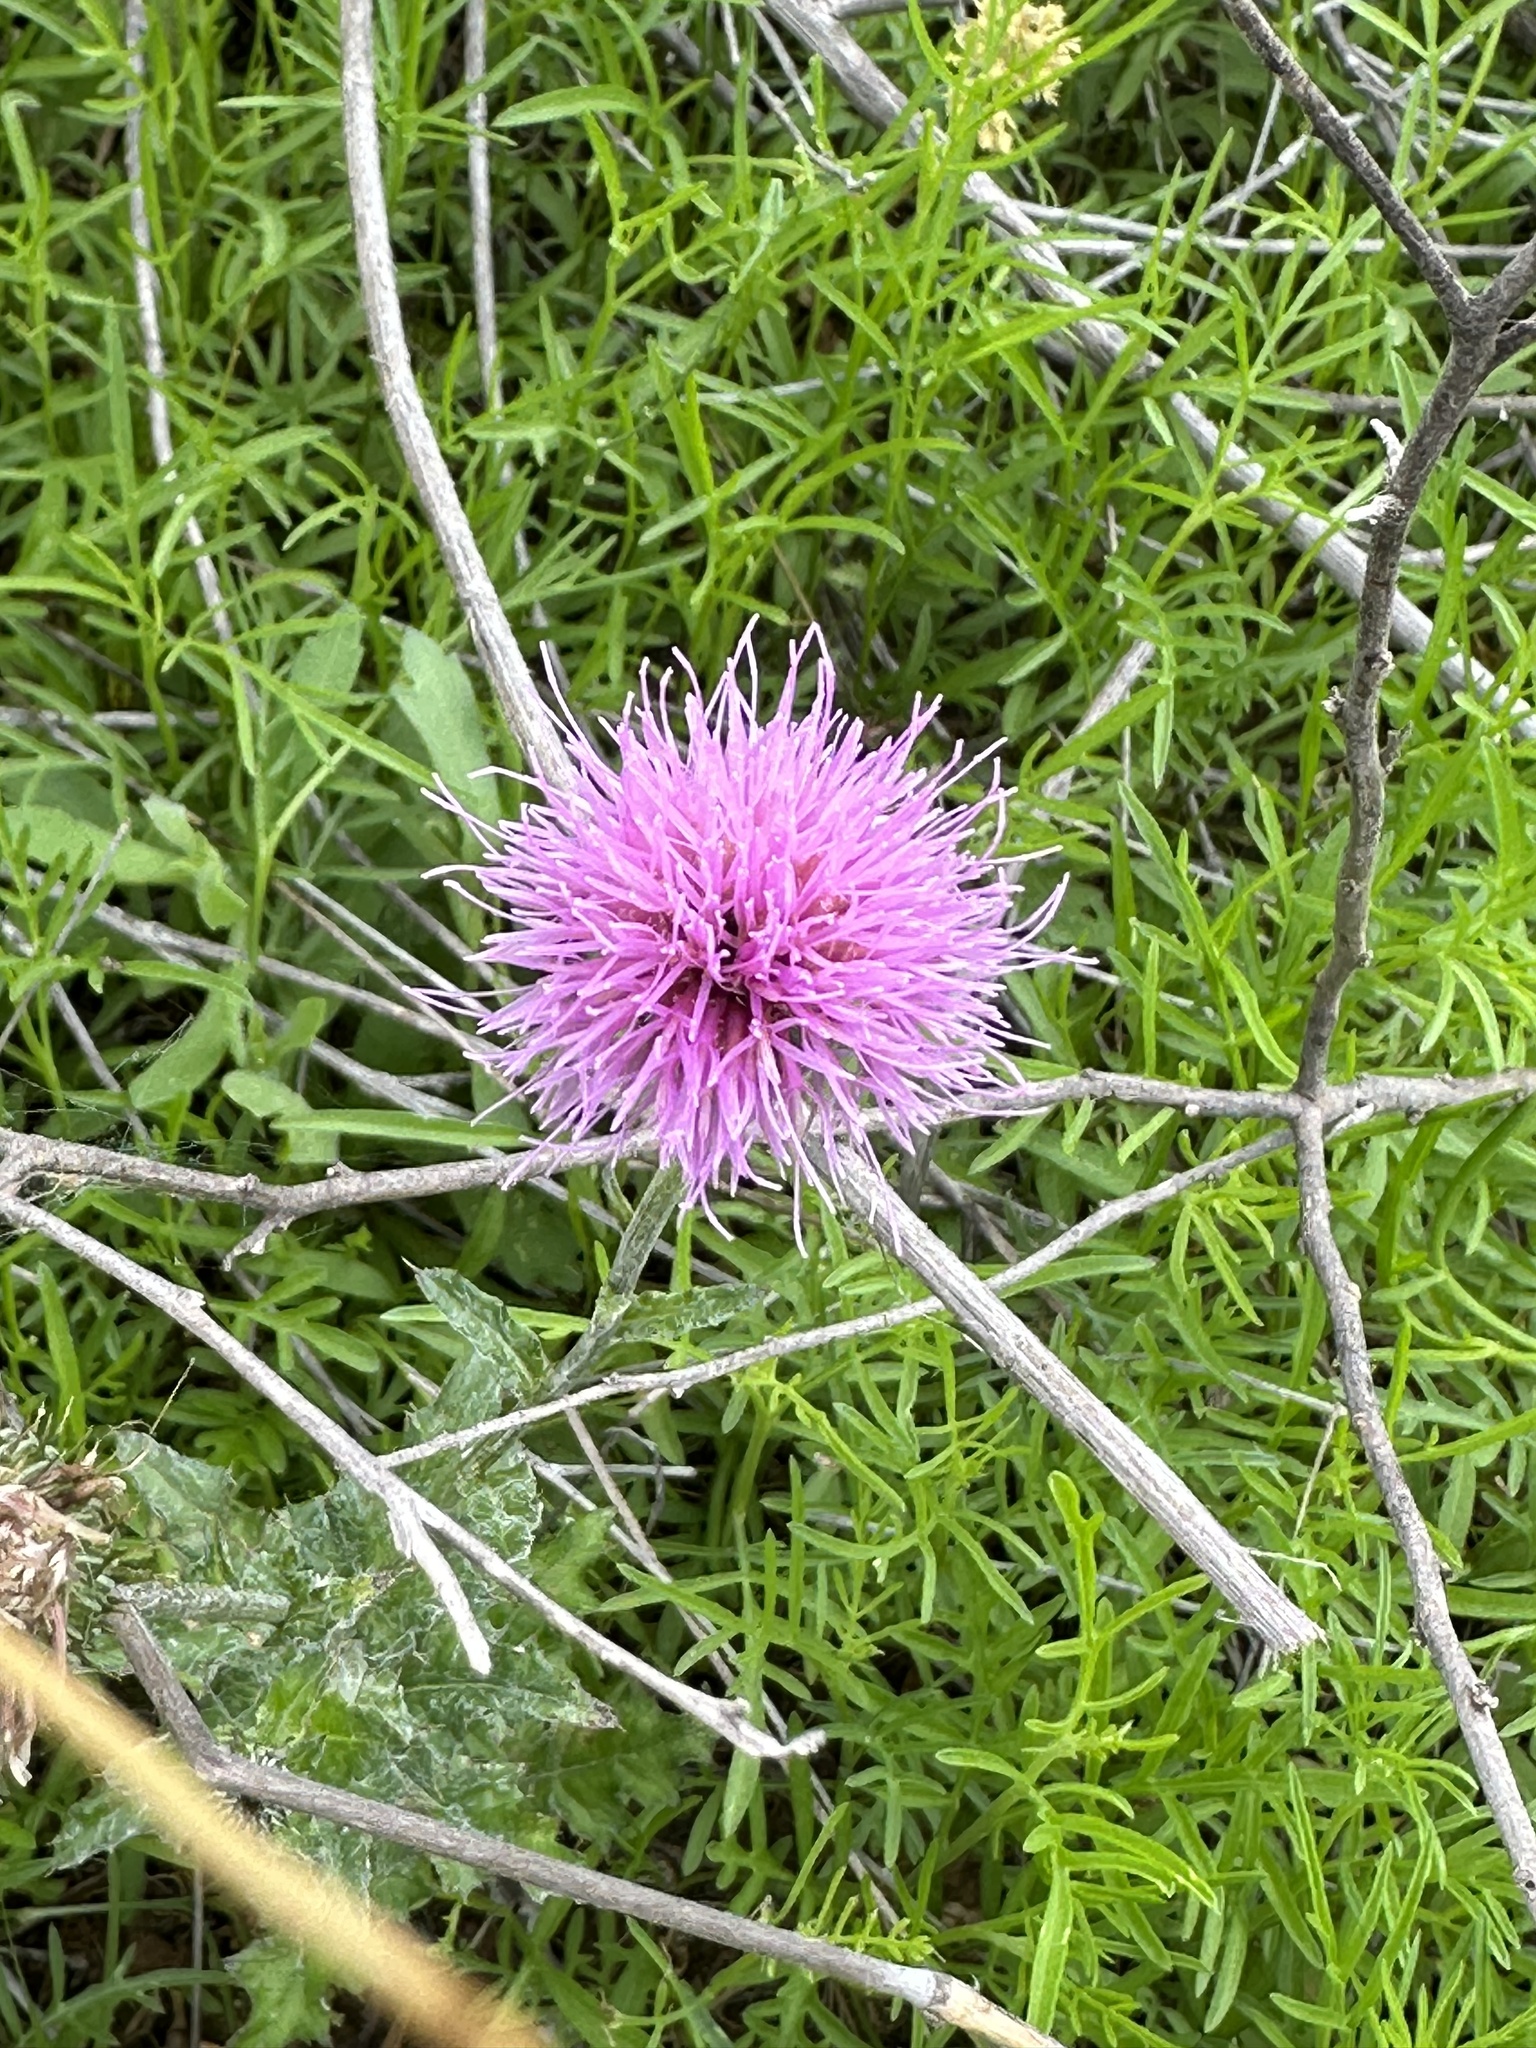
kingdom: Plantae
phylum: Tracheophyta
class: Magnoliopsida
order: Asterales
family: Asteraceae
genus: Cirsium
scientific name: Cirsium texanum
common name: Texas purple thistle
